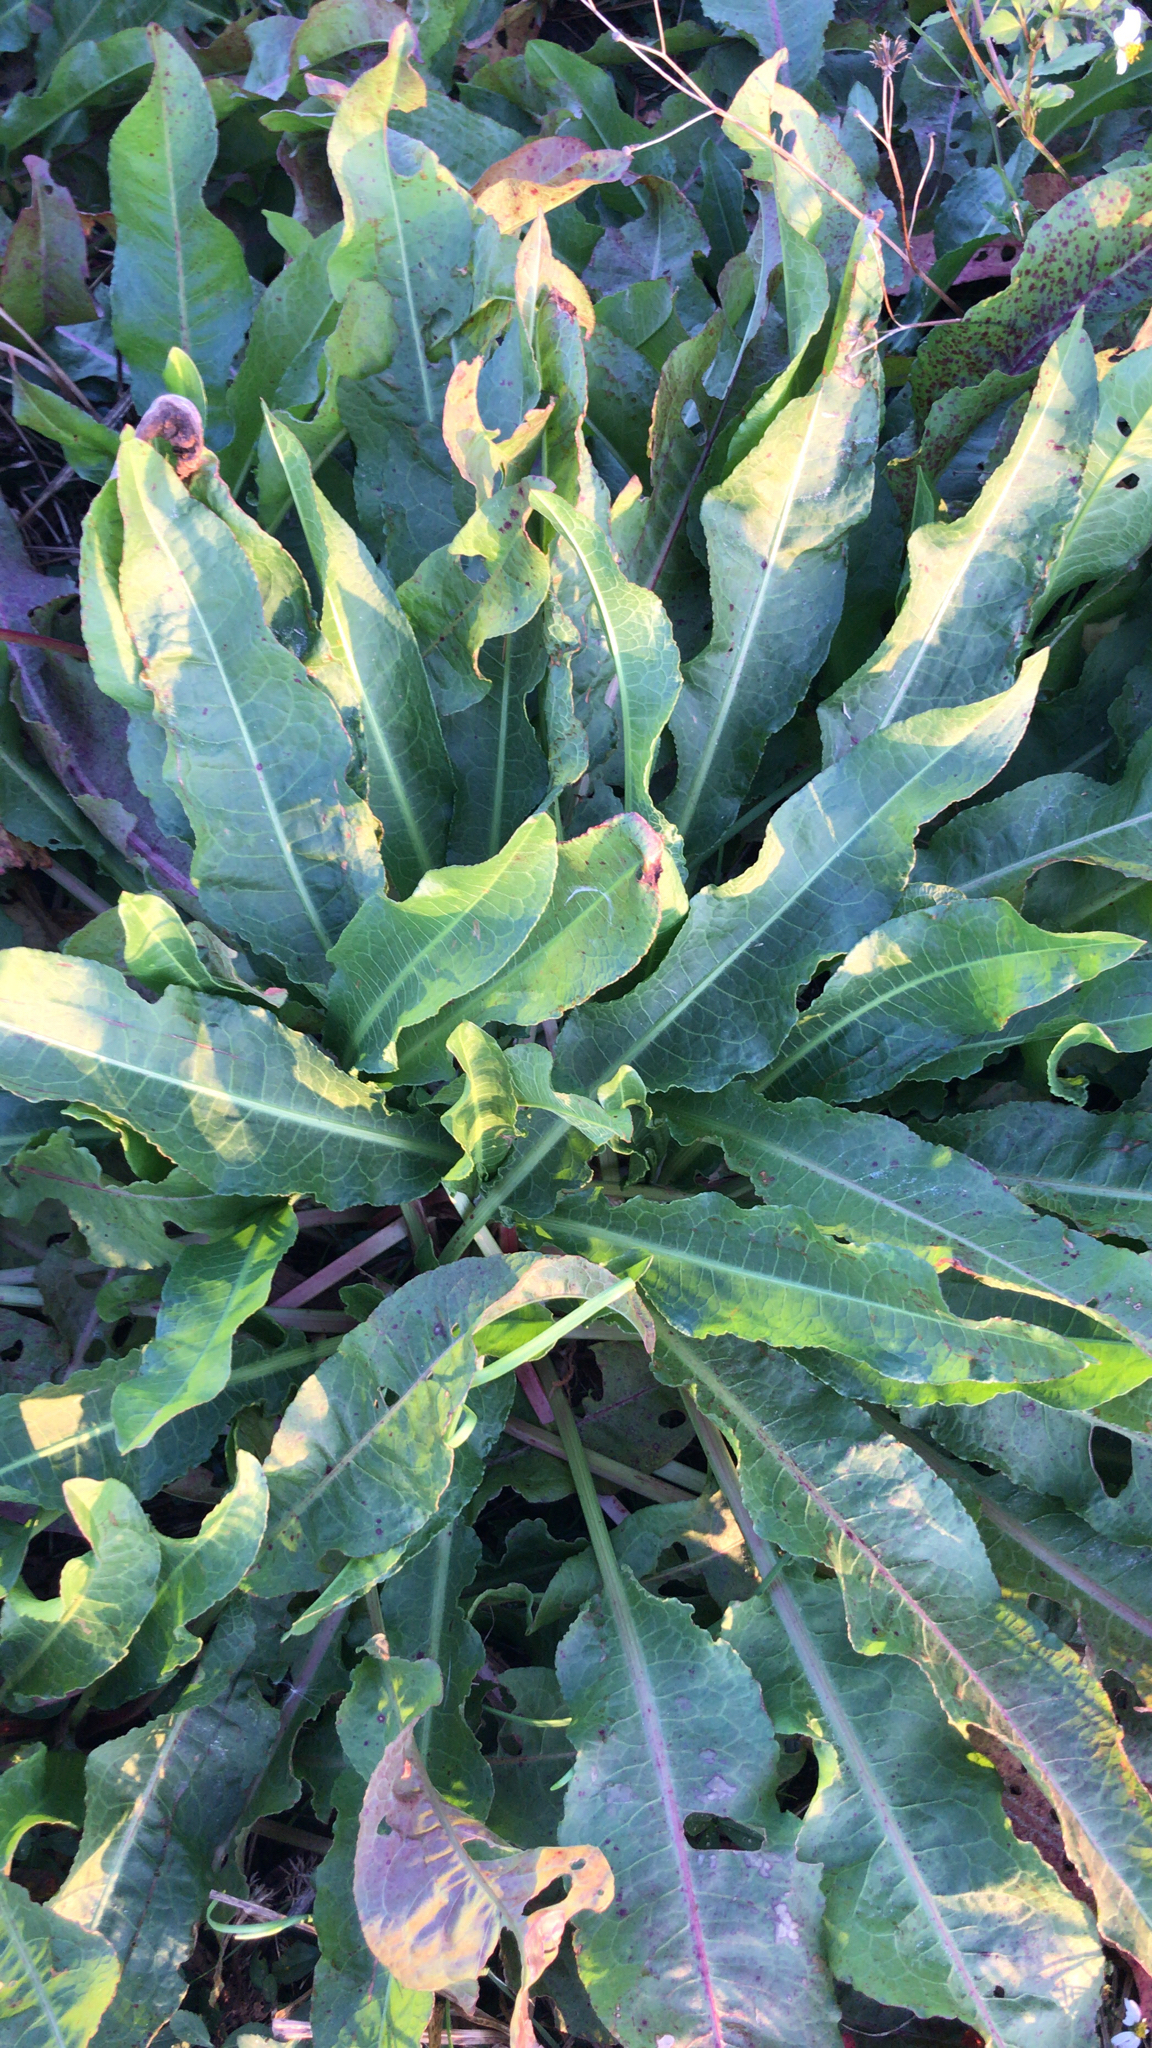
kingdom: Plantae
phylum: Tracheophyta
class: Magnoliopsida
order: Caryophyllales
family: Polygonaceae
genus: Rumex
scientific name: Rumex crispus
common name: Curled dock
